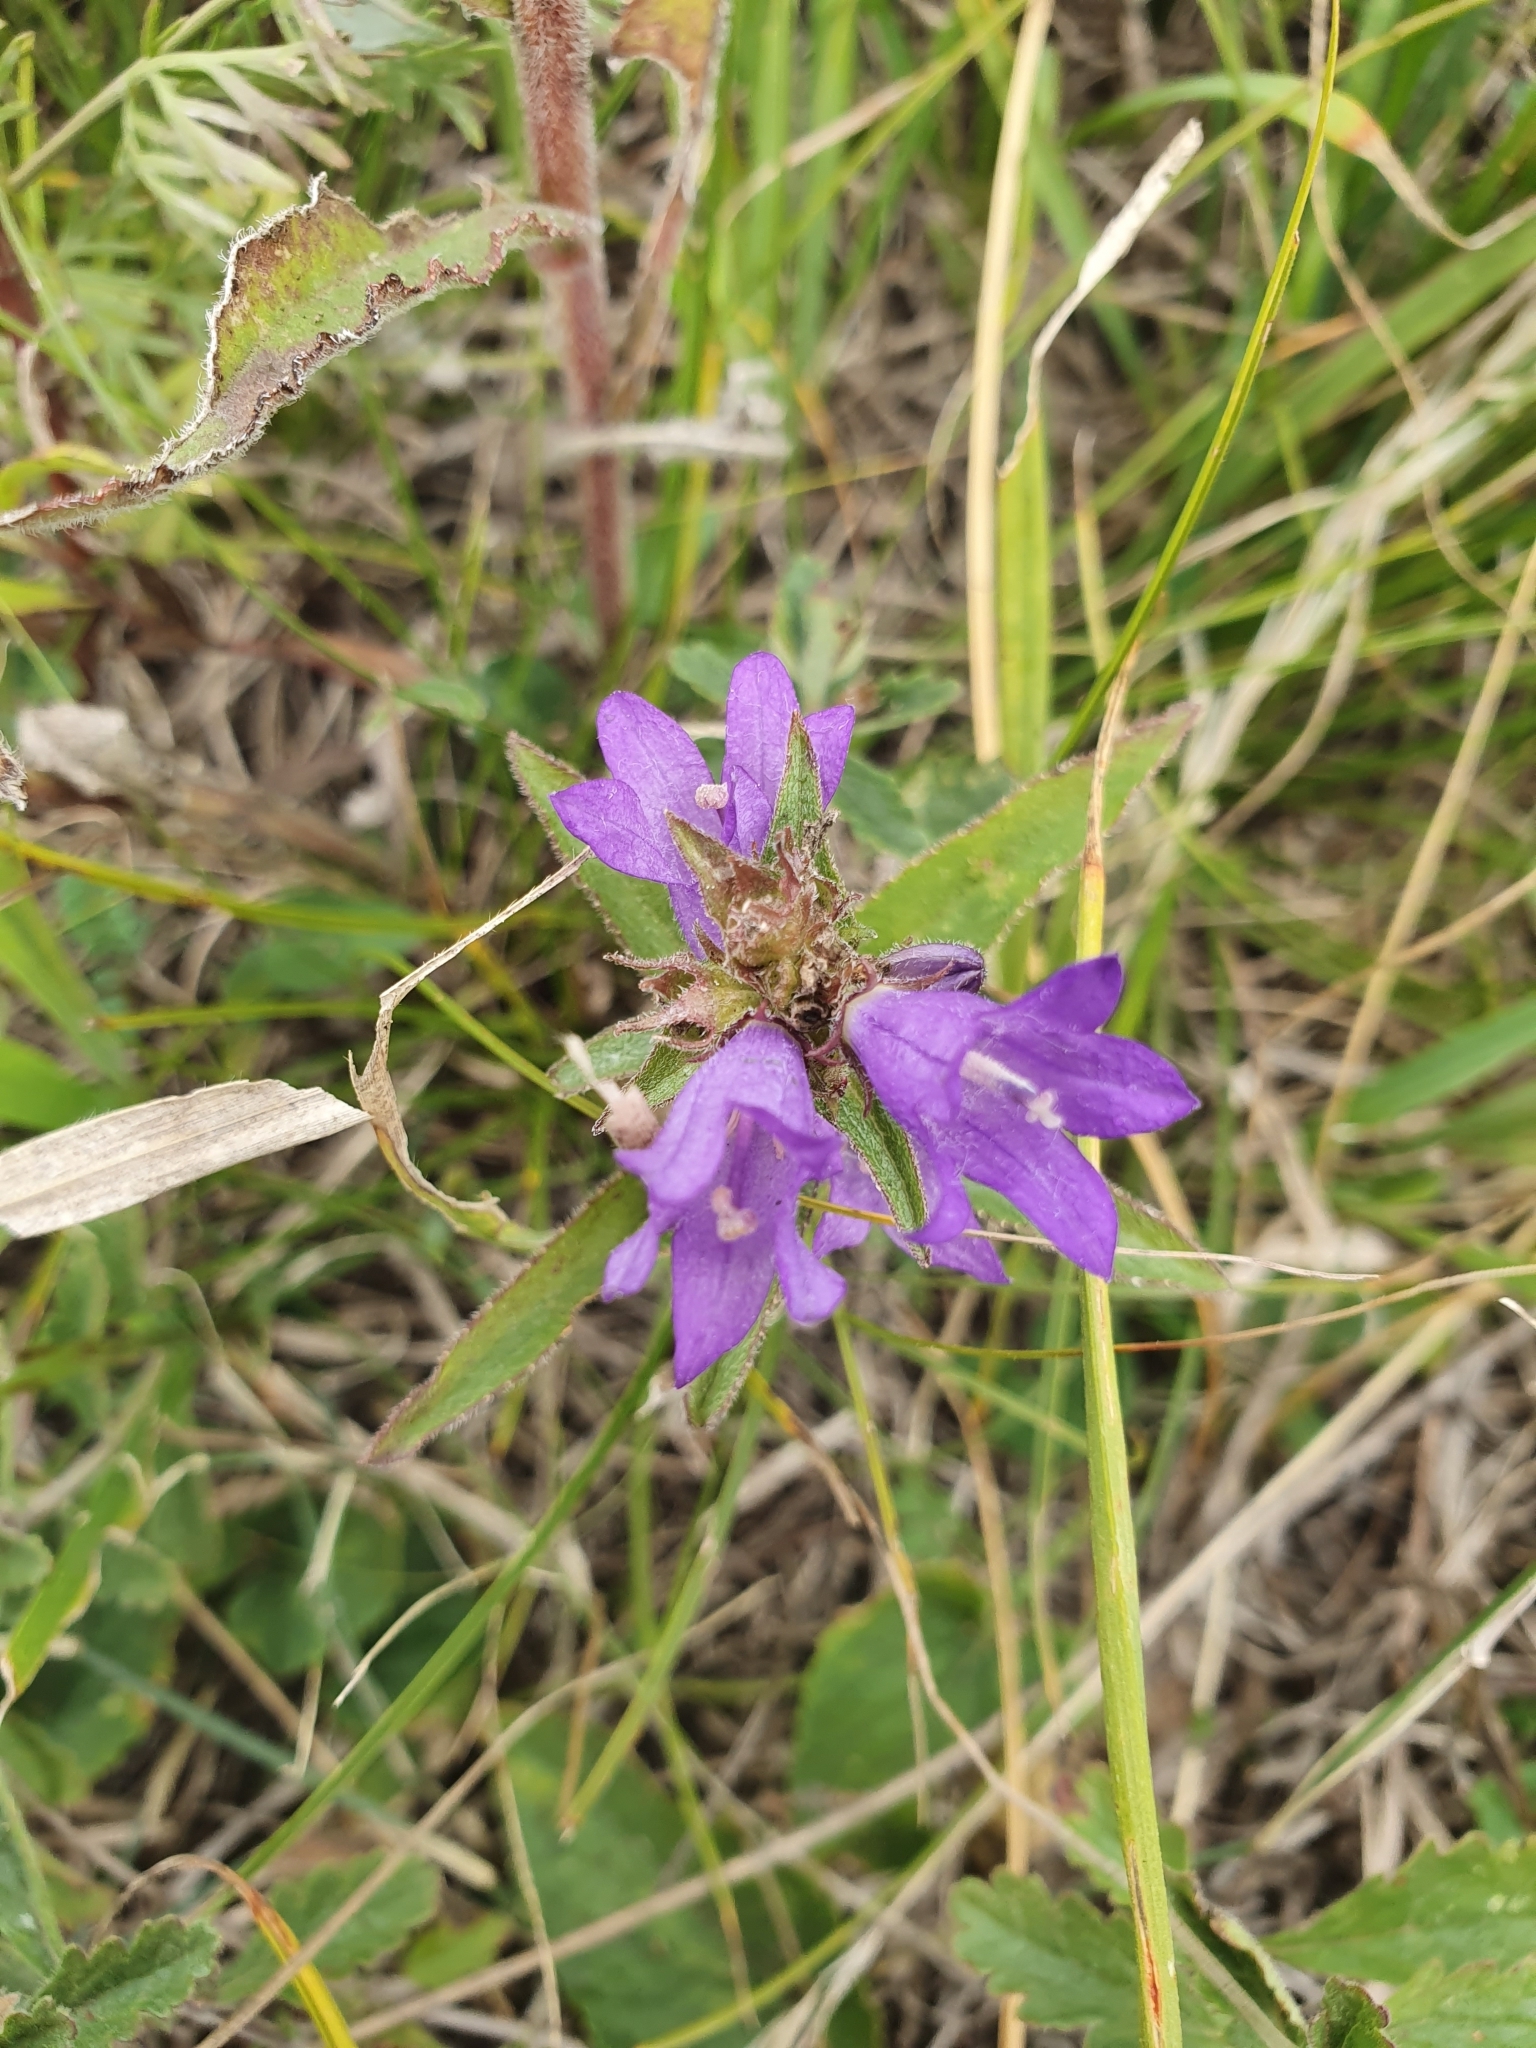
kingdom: Plantae
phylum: Tracheophyta
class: Magnoliopsida
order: Asterales
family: Campanulaceae
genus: Campanula
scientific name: Campanula glomerata
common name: Clustered bellflower
